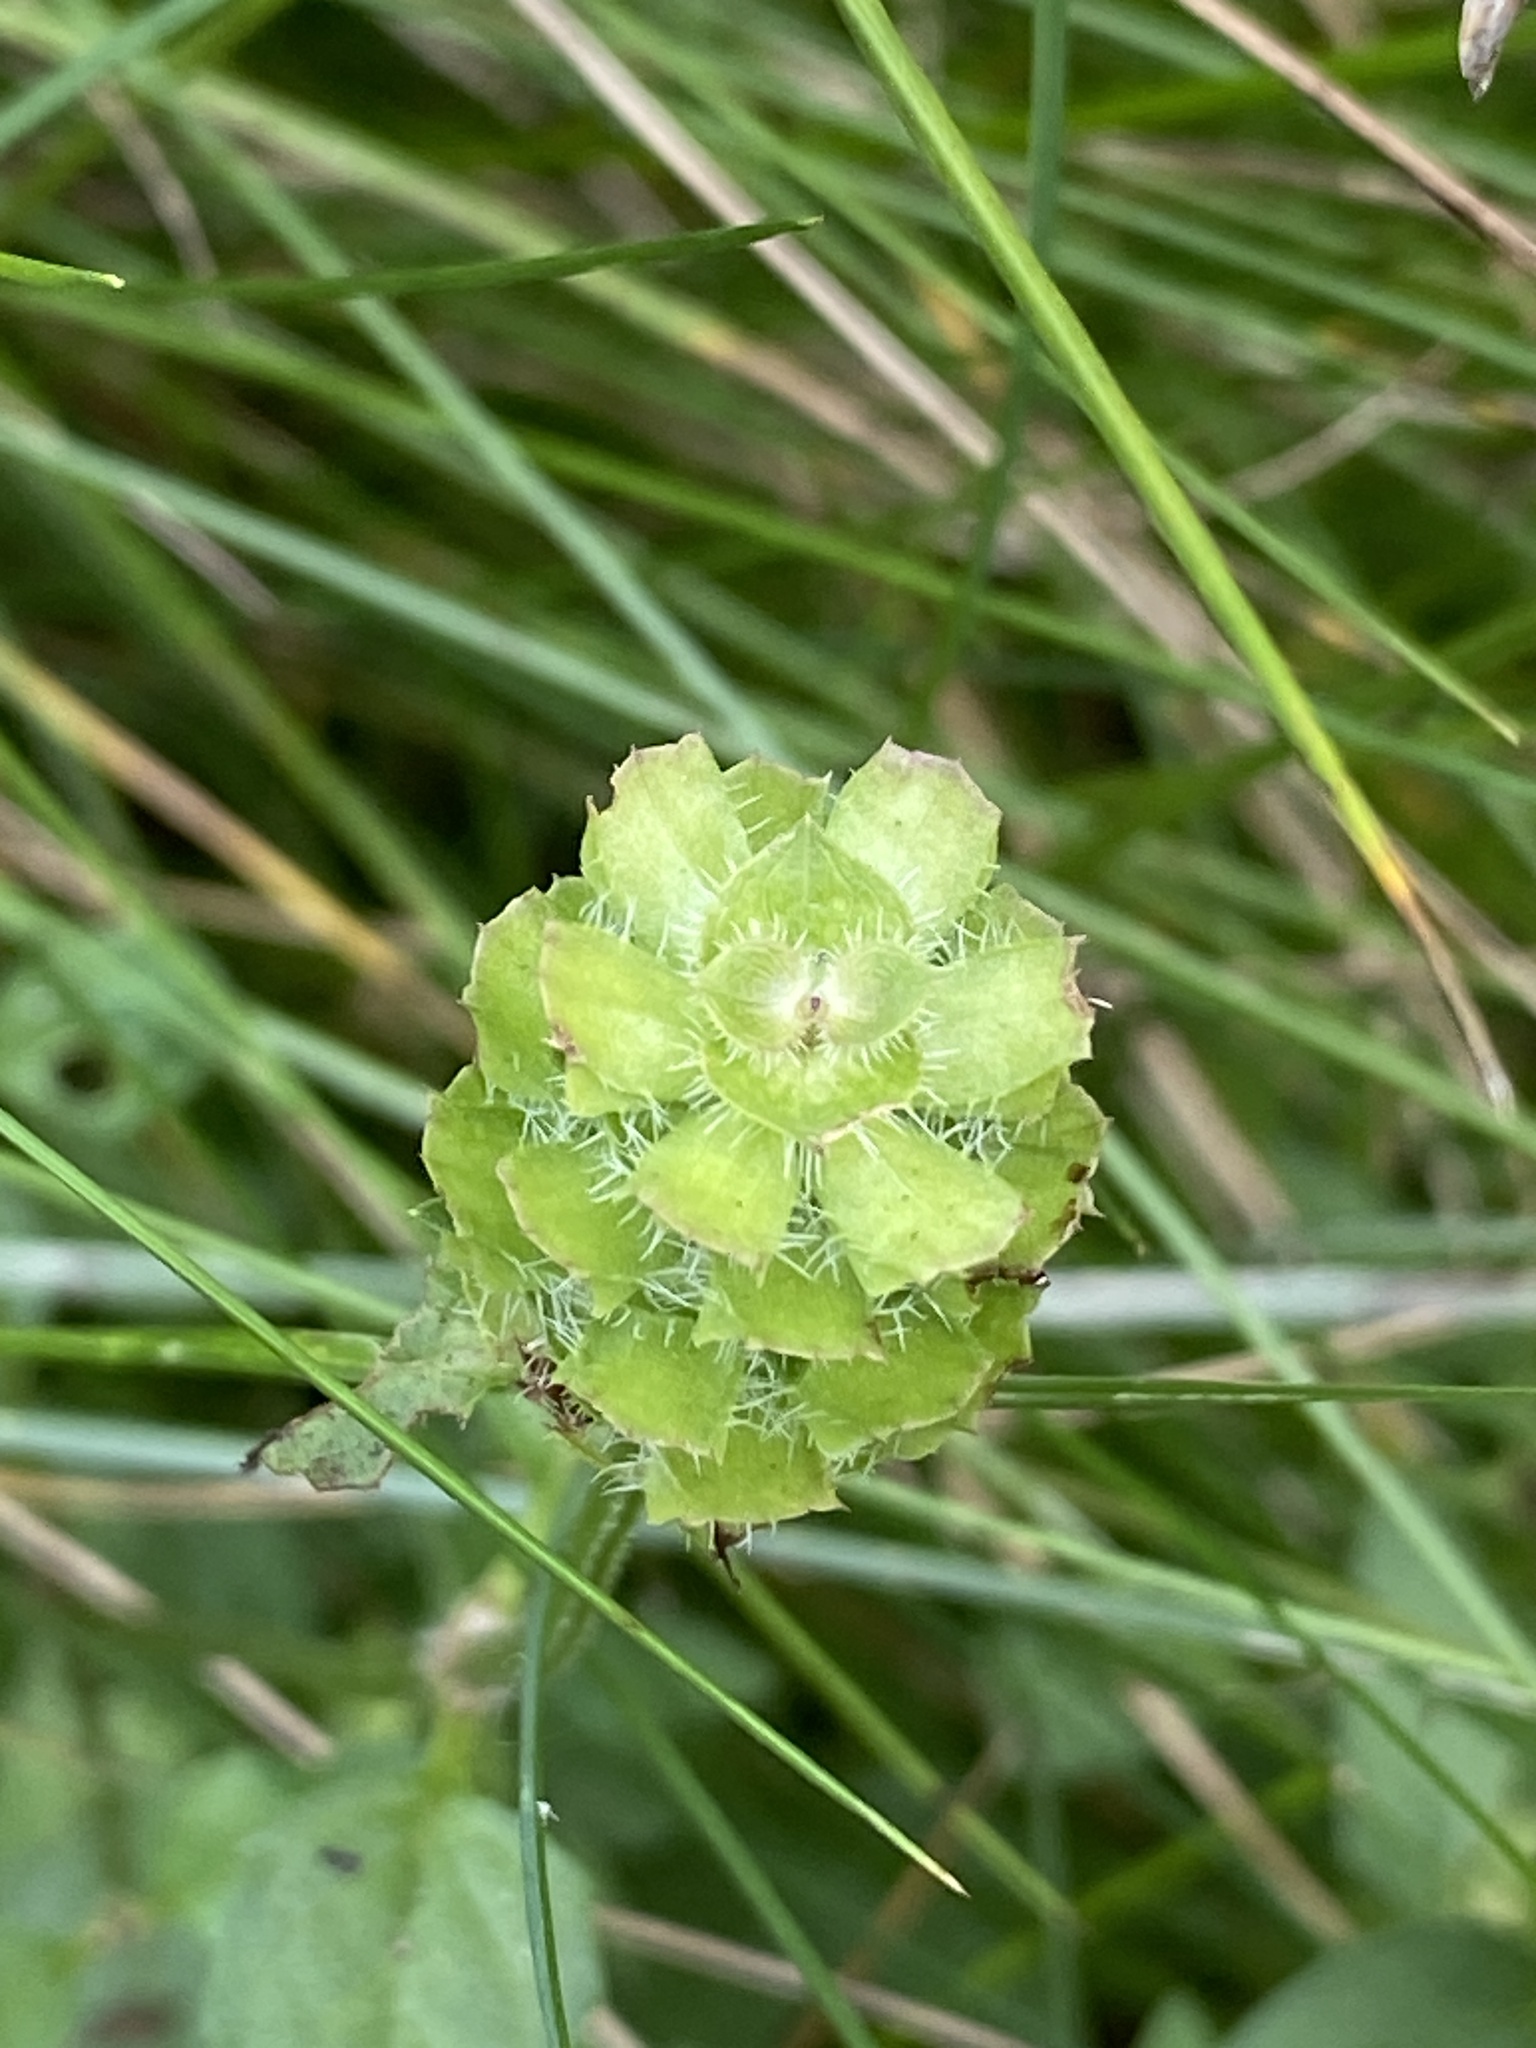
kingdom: Plantae
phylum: Tracheophyta
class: Magnoliopsida
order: Lamiales
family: Lamiaceae
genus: Prunella
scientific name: Prunella vulgaris
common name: Heal-all
